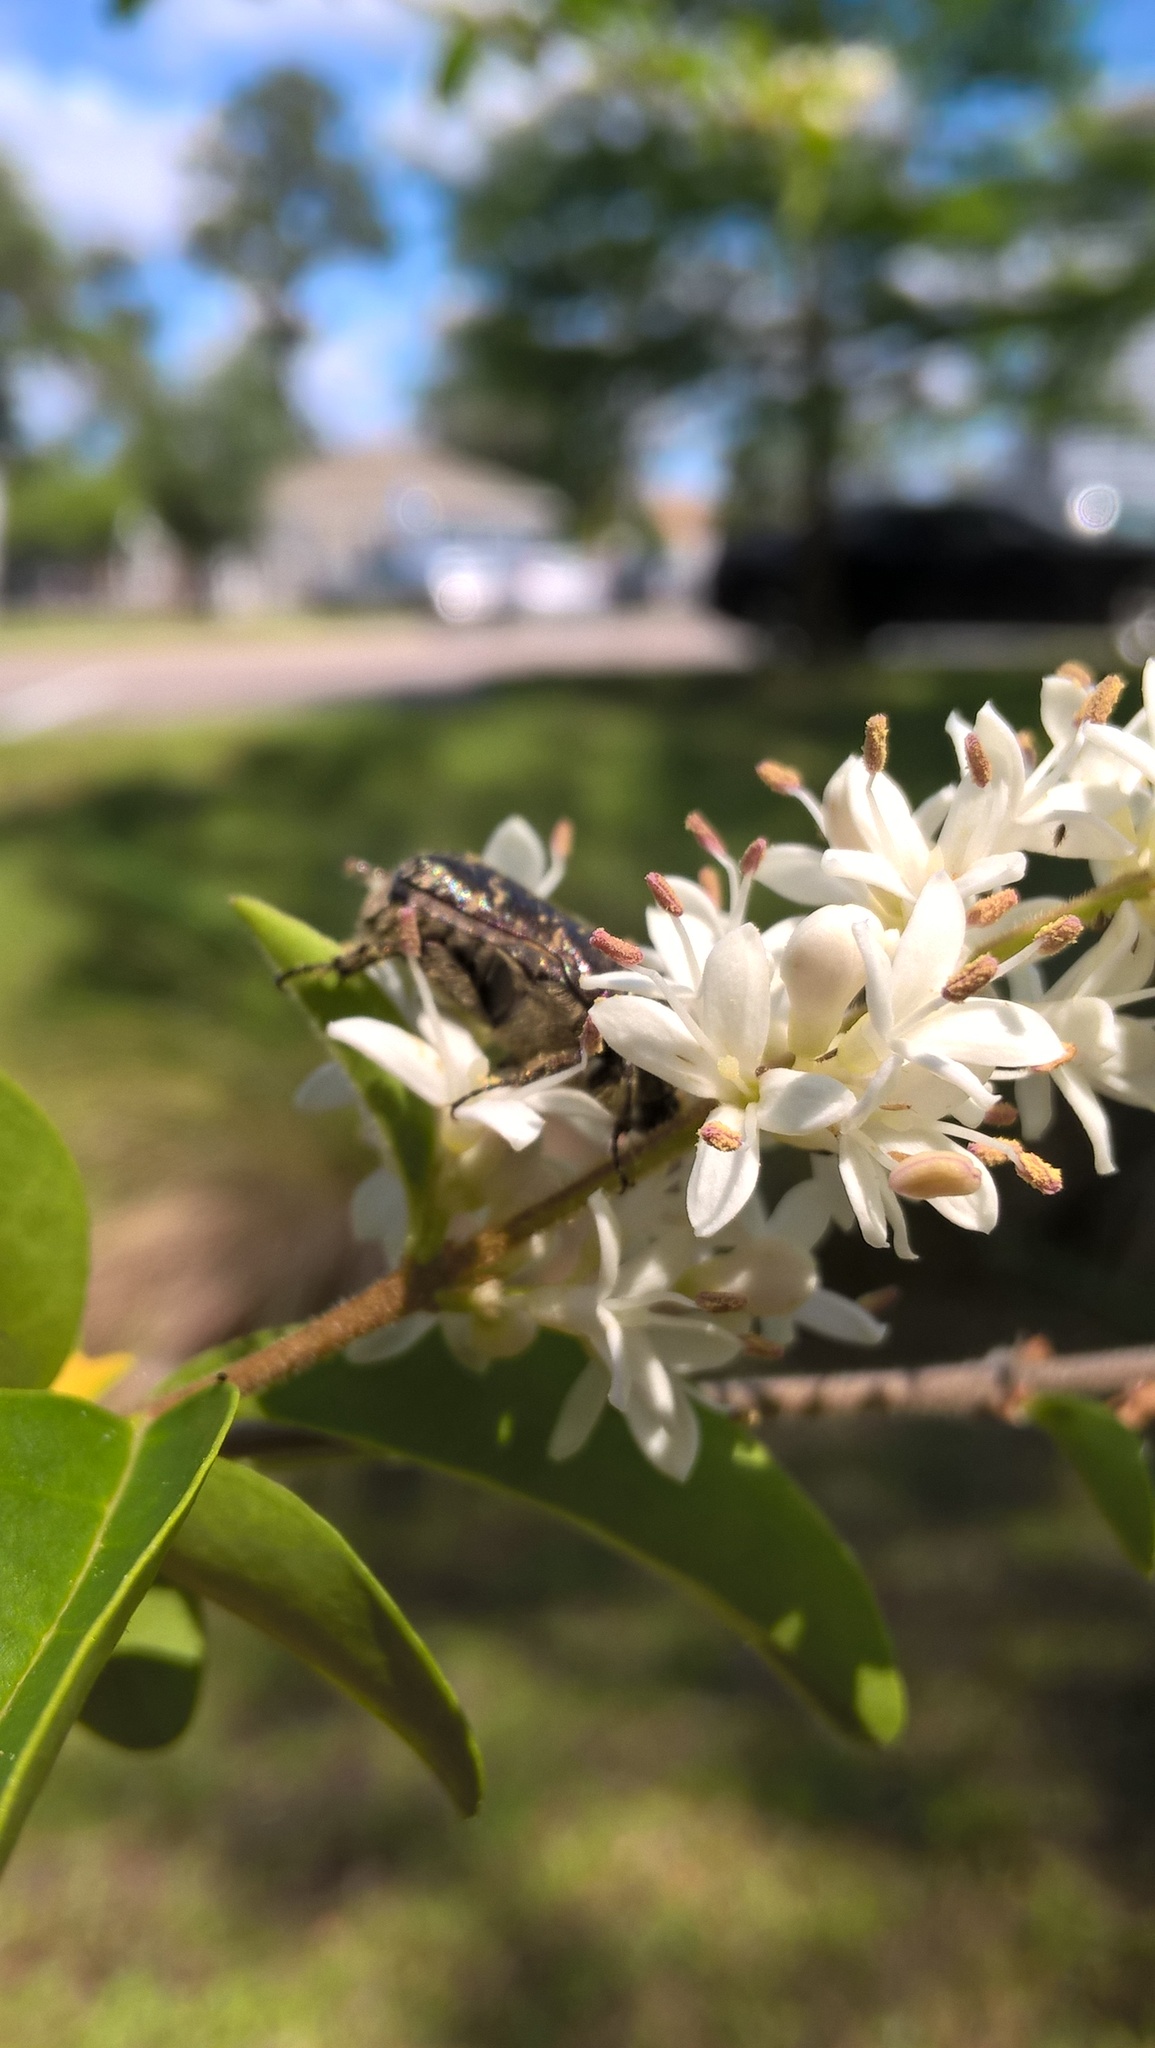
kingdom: Animalia
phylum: Arthropoda
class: Insecta
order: Coleoptera
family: Scarabaeidae
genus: Euphoria
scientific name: Euphoria sepulcralis
